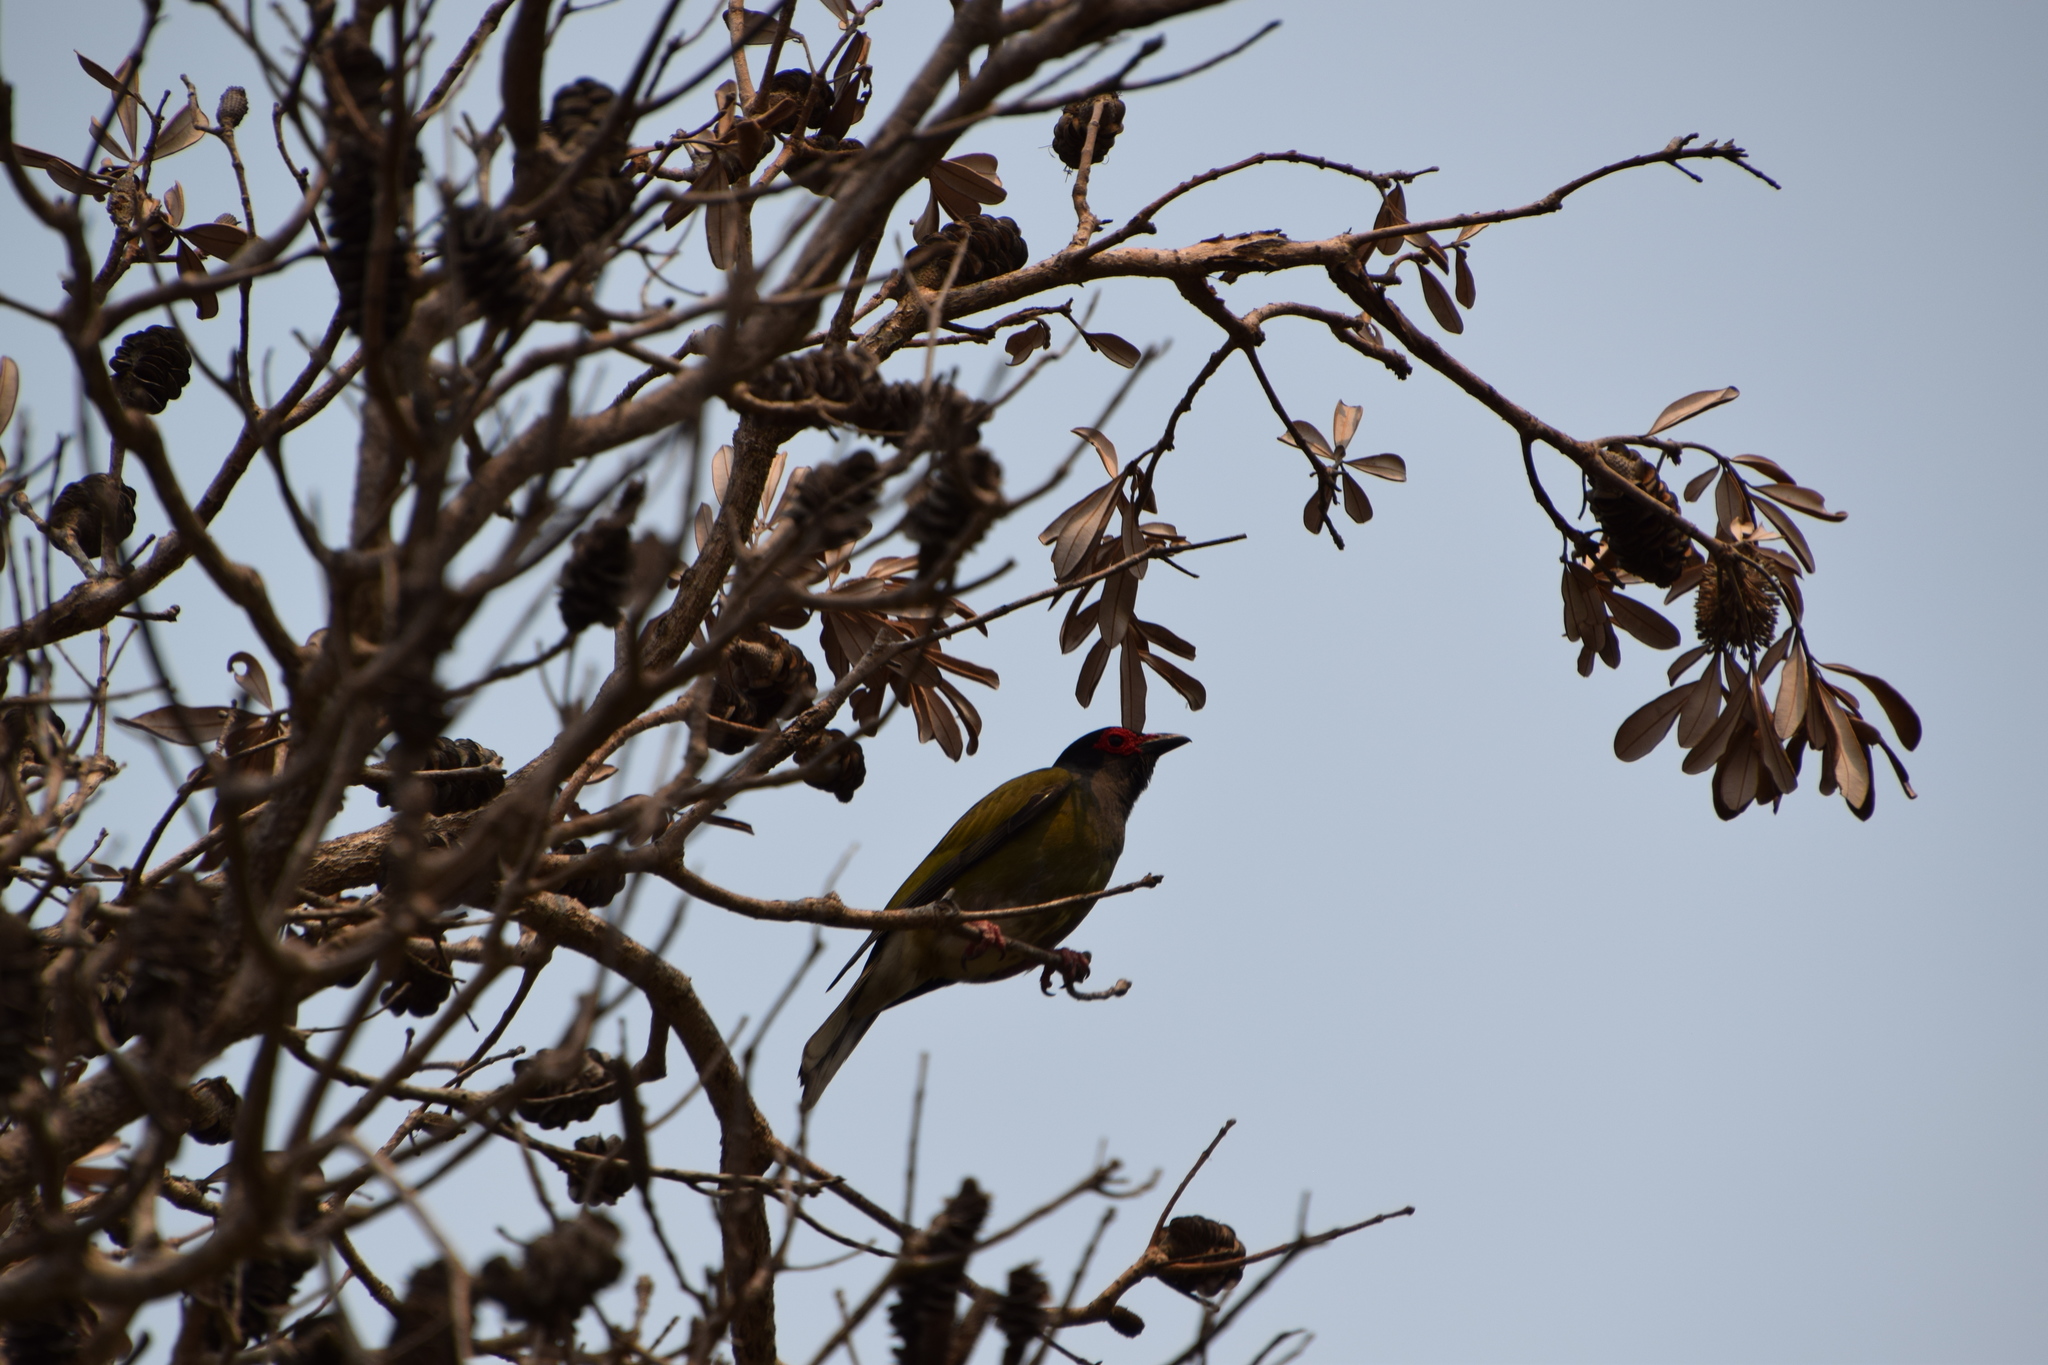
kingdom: Animalia
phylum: Chordata
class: Aves
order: Passeriformes
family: Oriolidae
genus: Sphecotheres
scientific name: Sphecotheres vieilloti
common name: Australasian figbird
